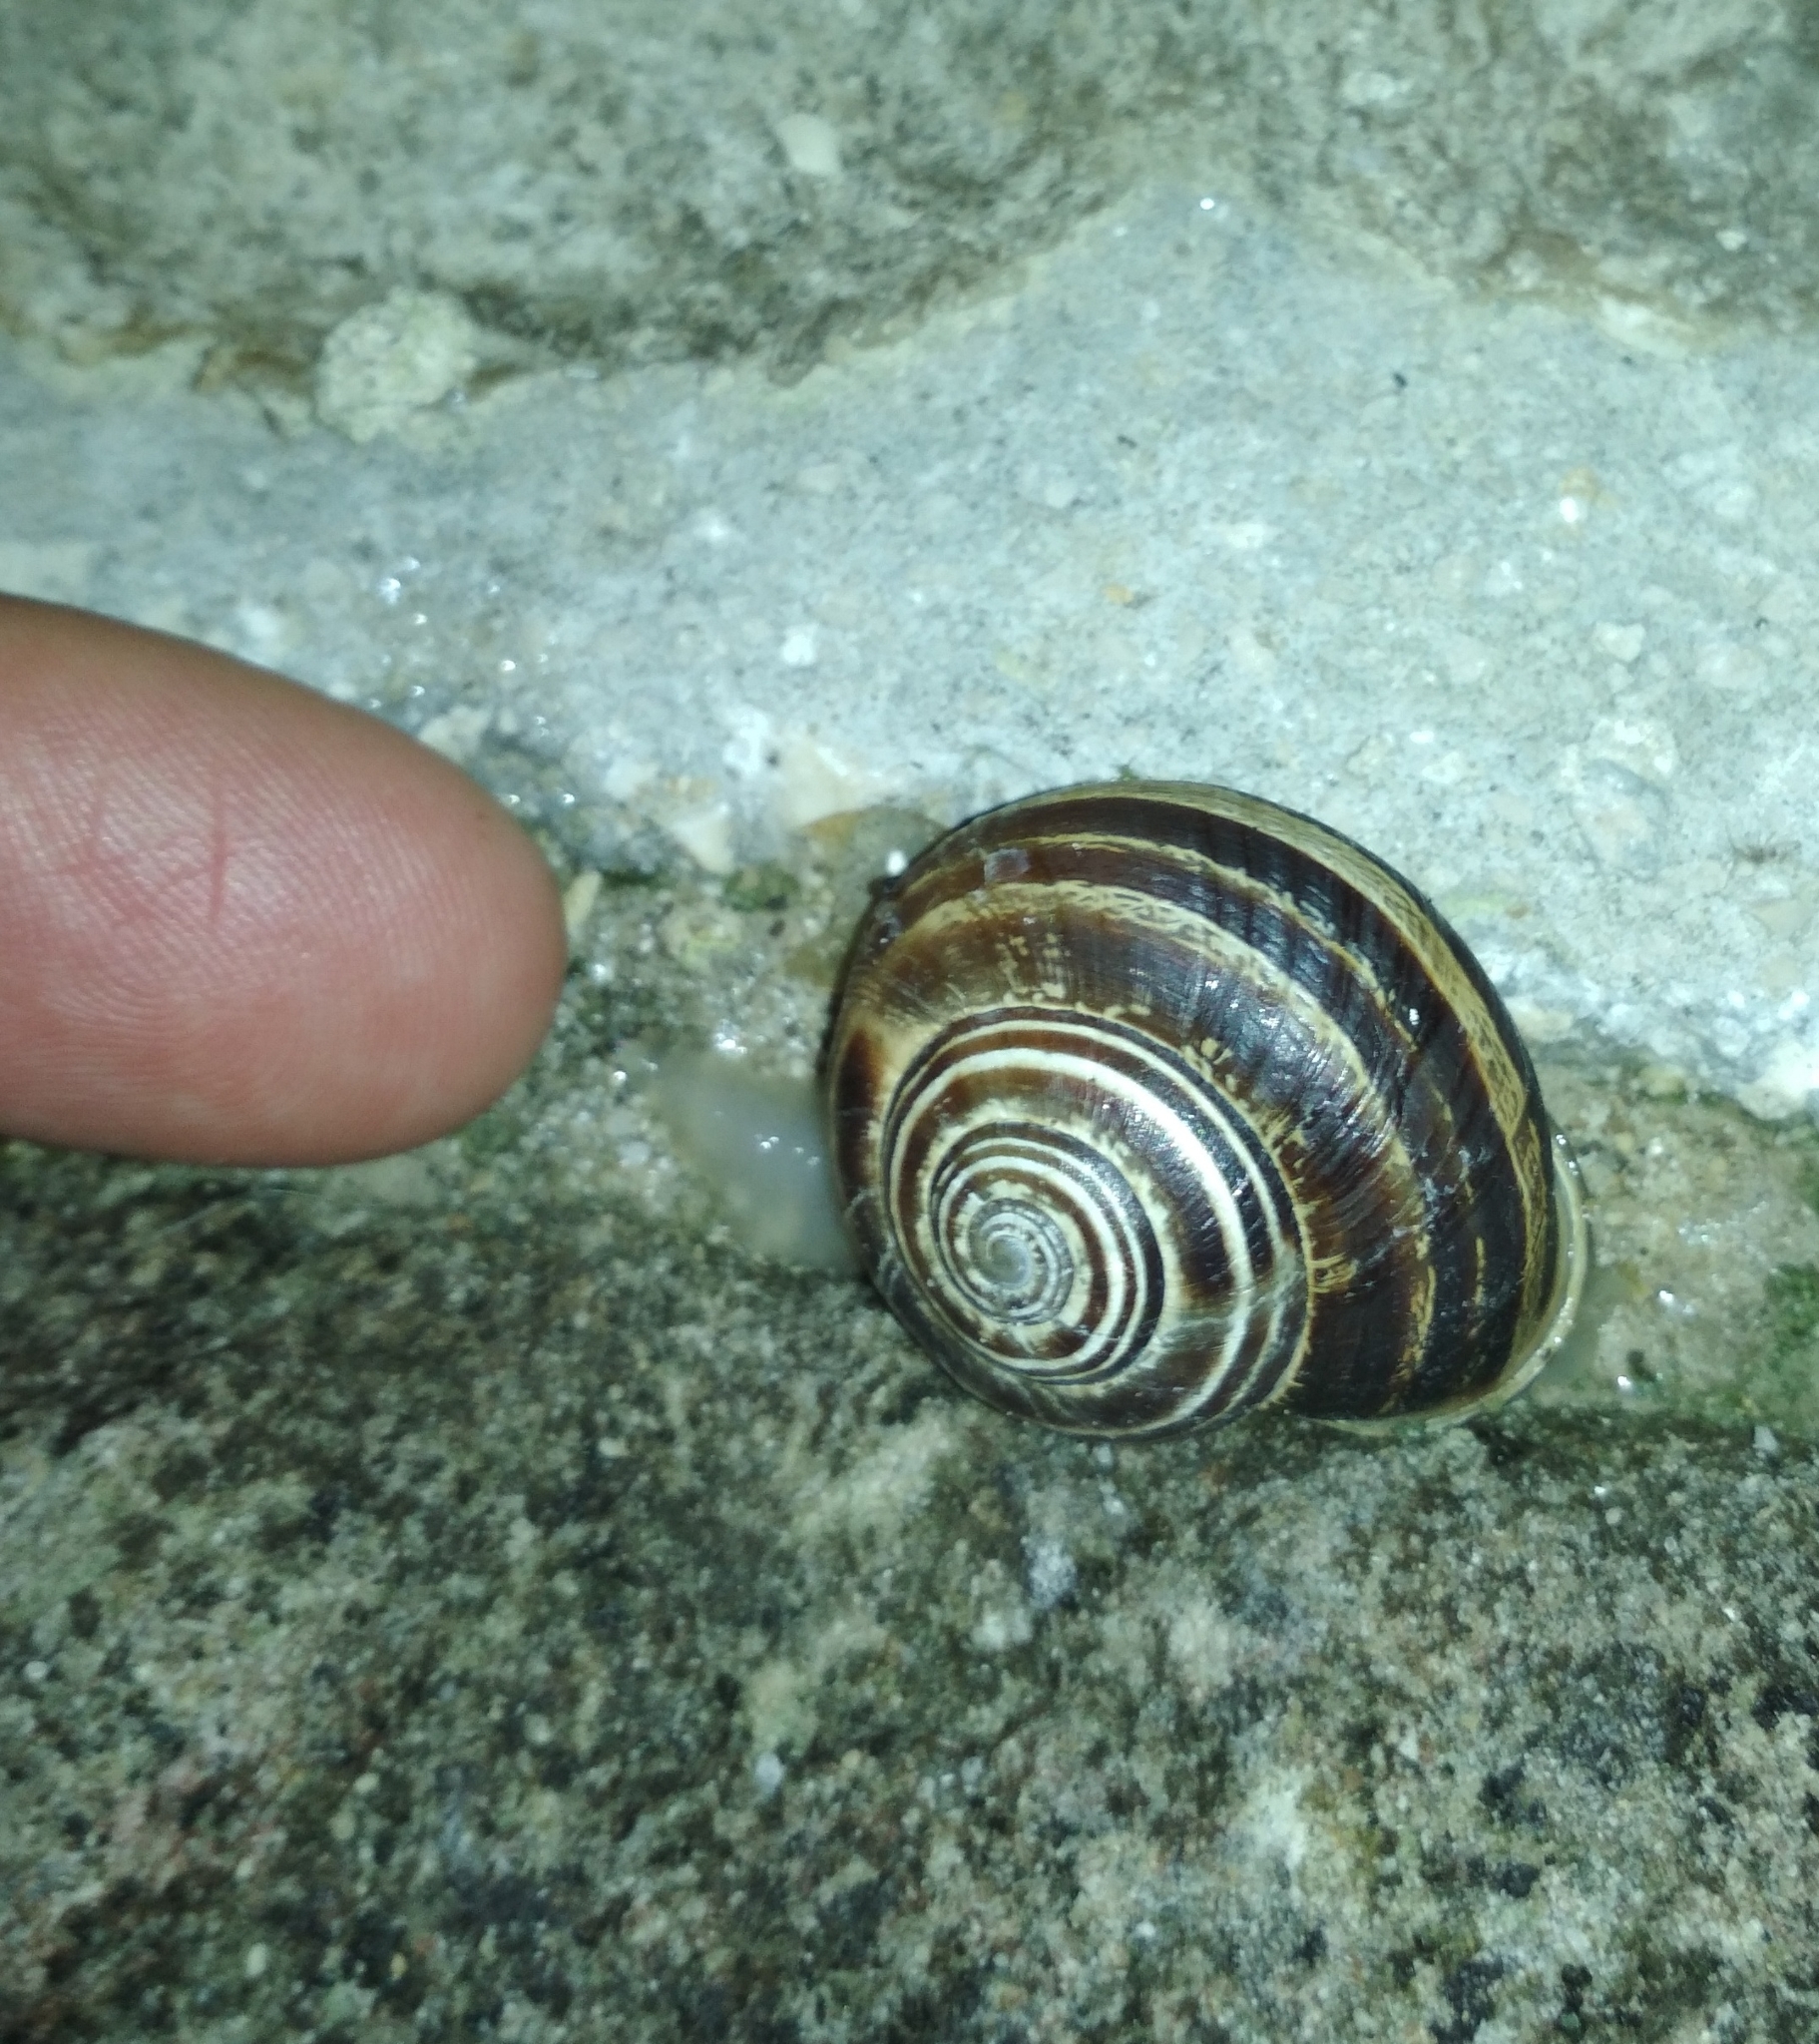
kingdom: Animalia
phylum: Mollusca
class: Gastropoda
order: Stylommatophora
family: Helicidae
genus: Eobania
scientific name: Eobania vermiculata
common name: Chocolateband snail
